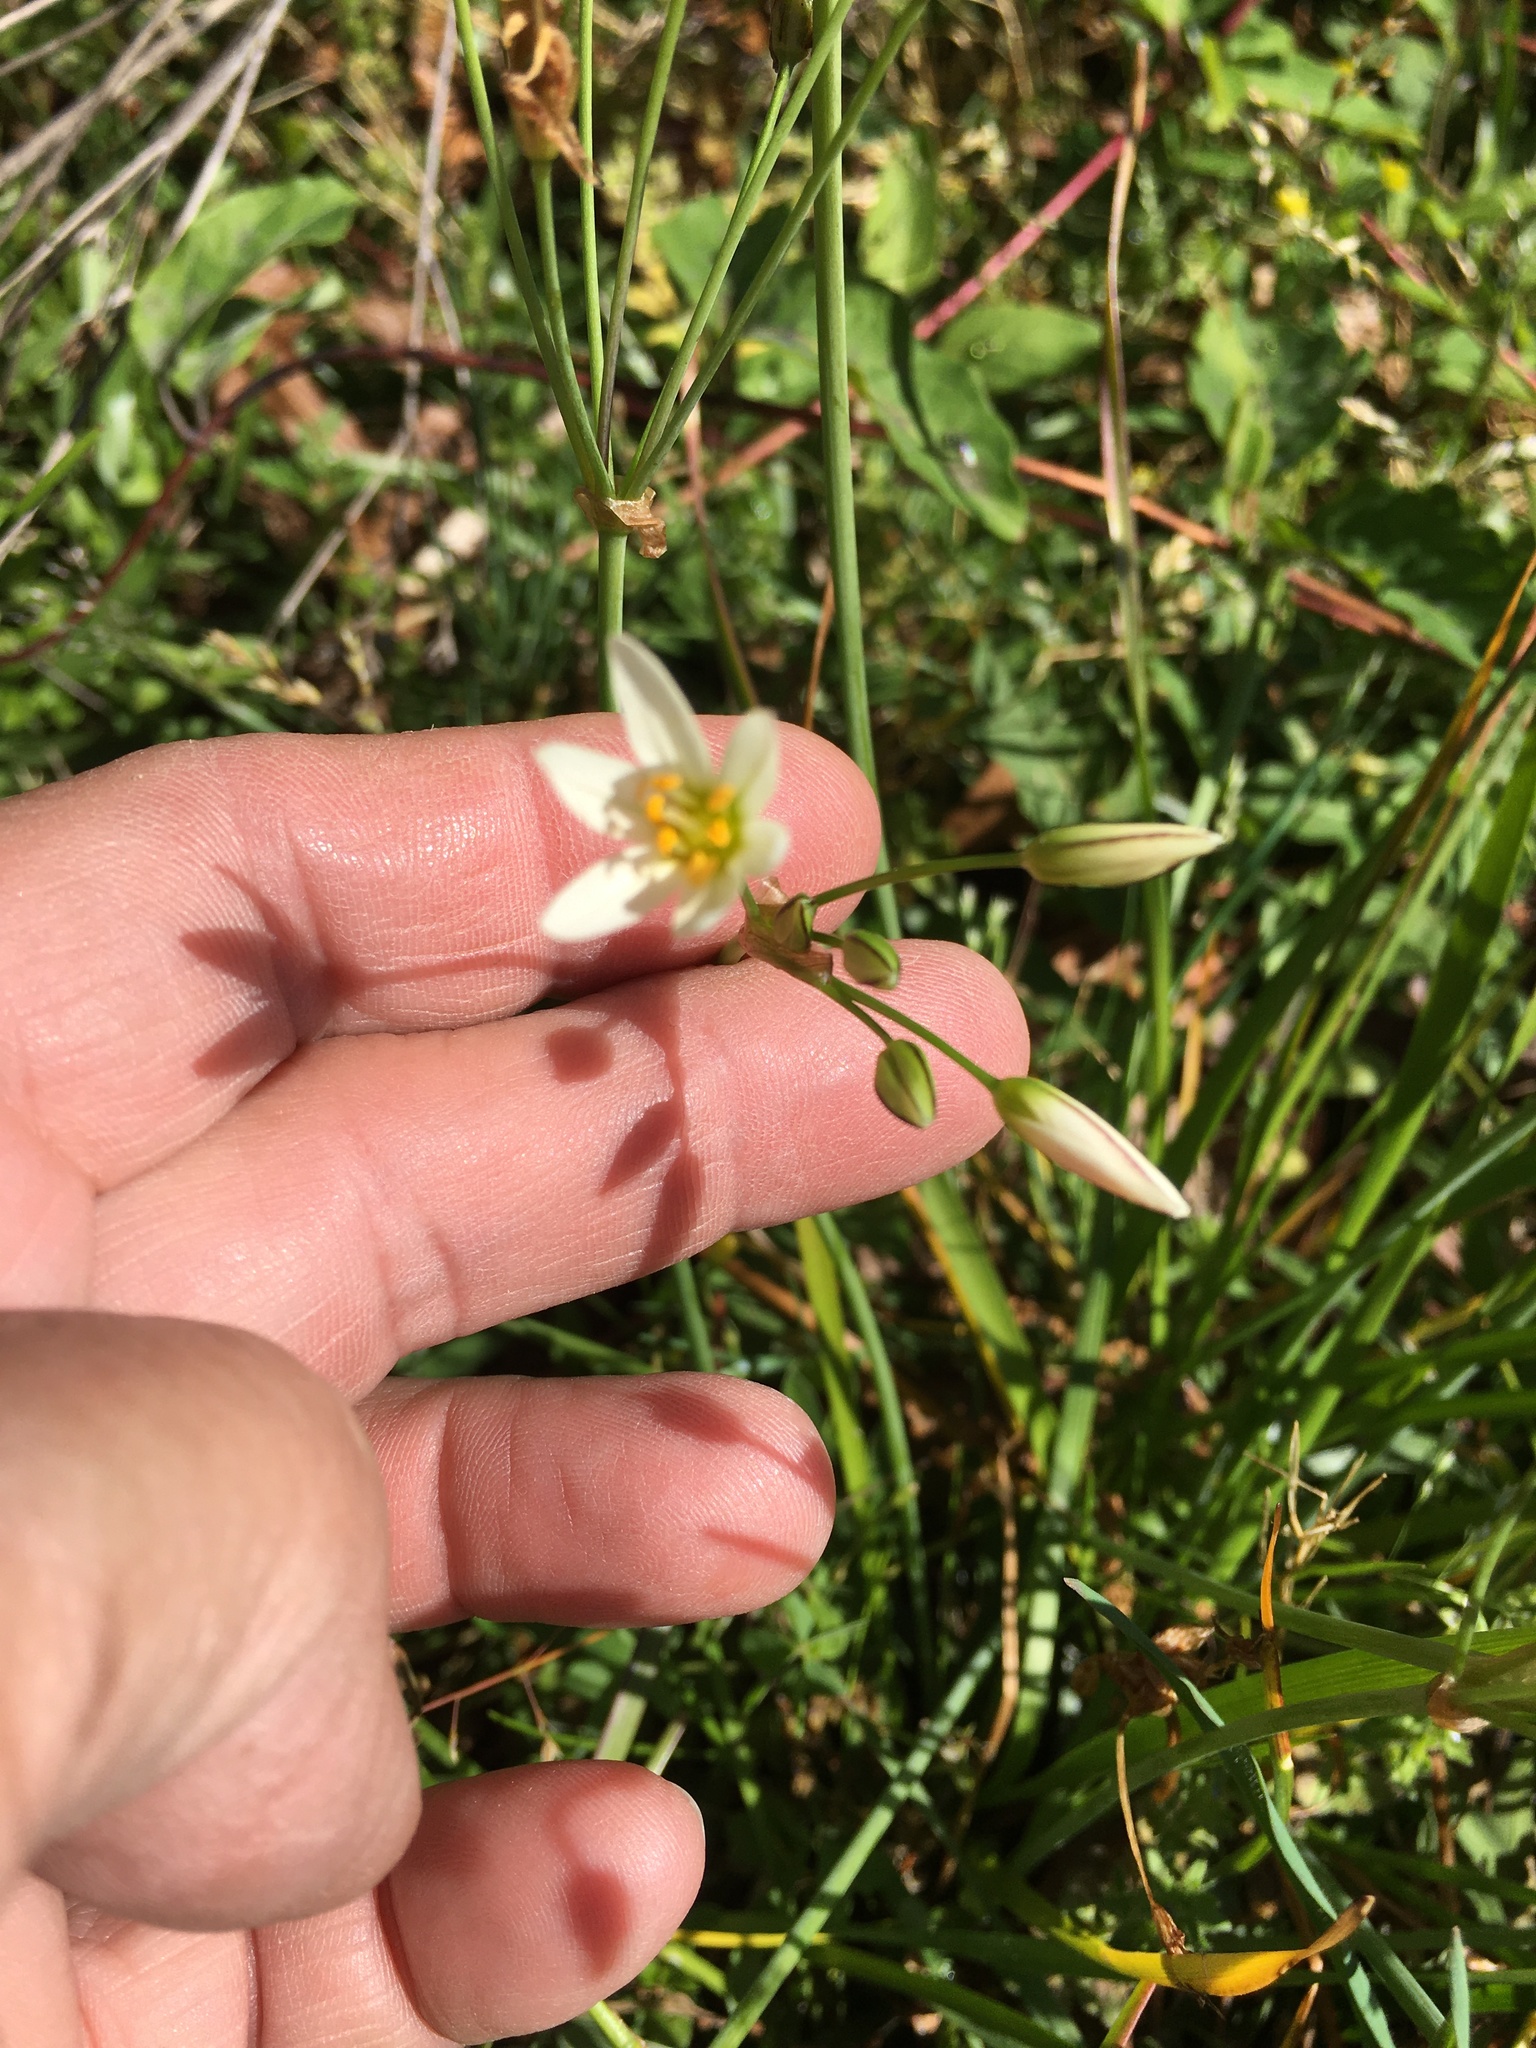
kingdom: Plantae
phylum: Tracheophyta
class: Liliopsida
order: Asparagales
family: Amaryllidaceae
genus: Nothoscordum
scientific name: Nothoscordum bivalve
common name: Crow-poison
